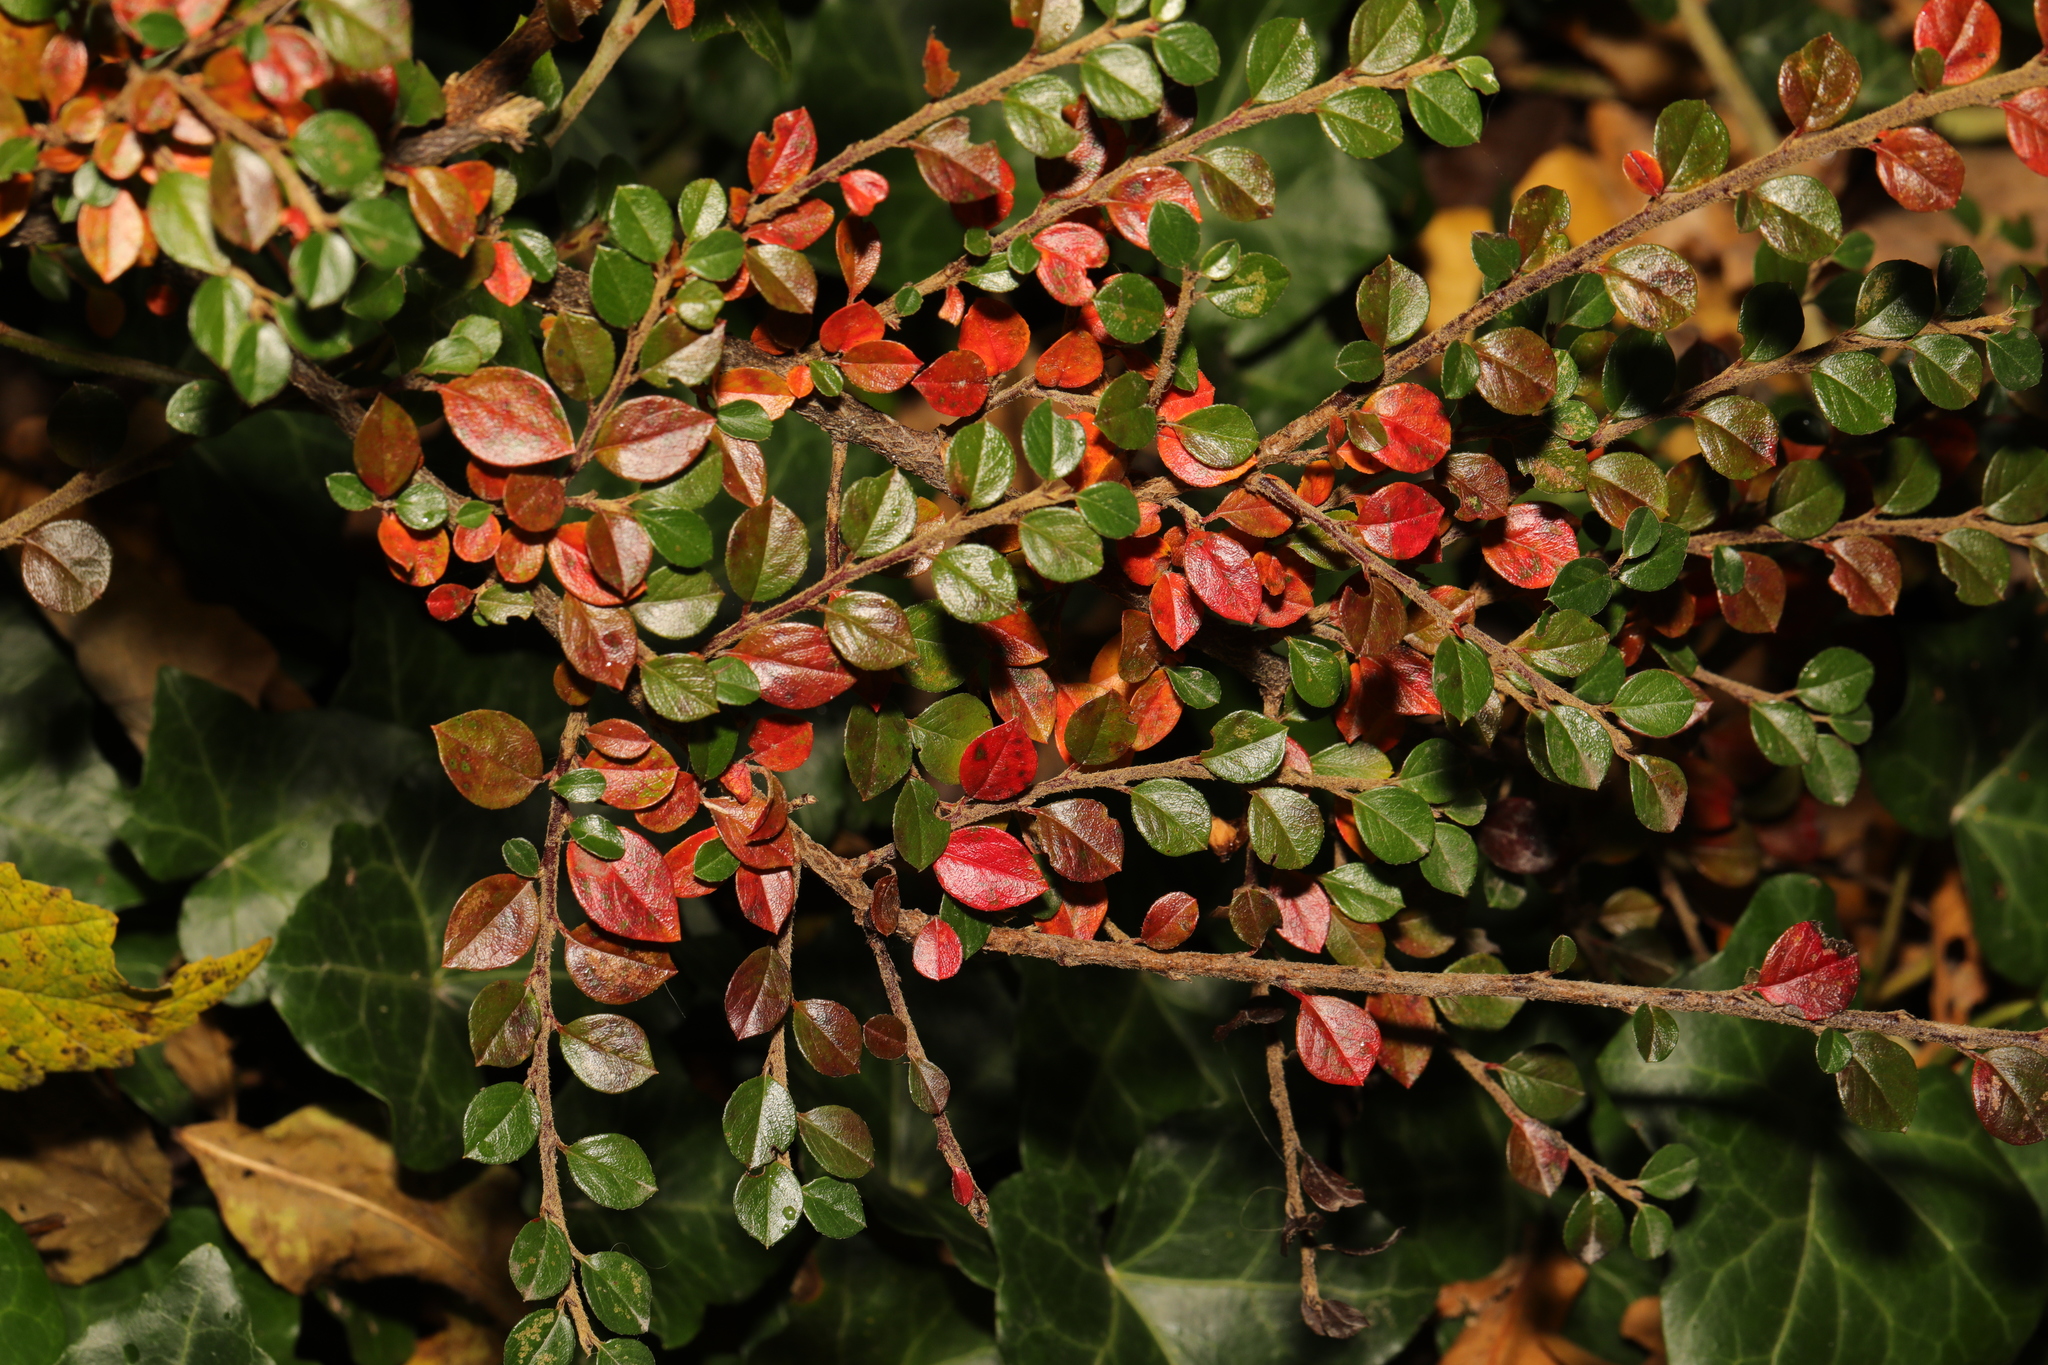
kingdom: Plantae
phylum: Tracheophyta
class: Magnoliopsida
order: Rosales
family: Rosaceae
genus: Cotoneaster
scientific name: Cotoneaster horizontalis
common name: Wall cotoneaster
